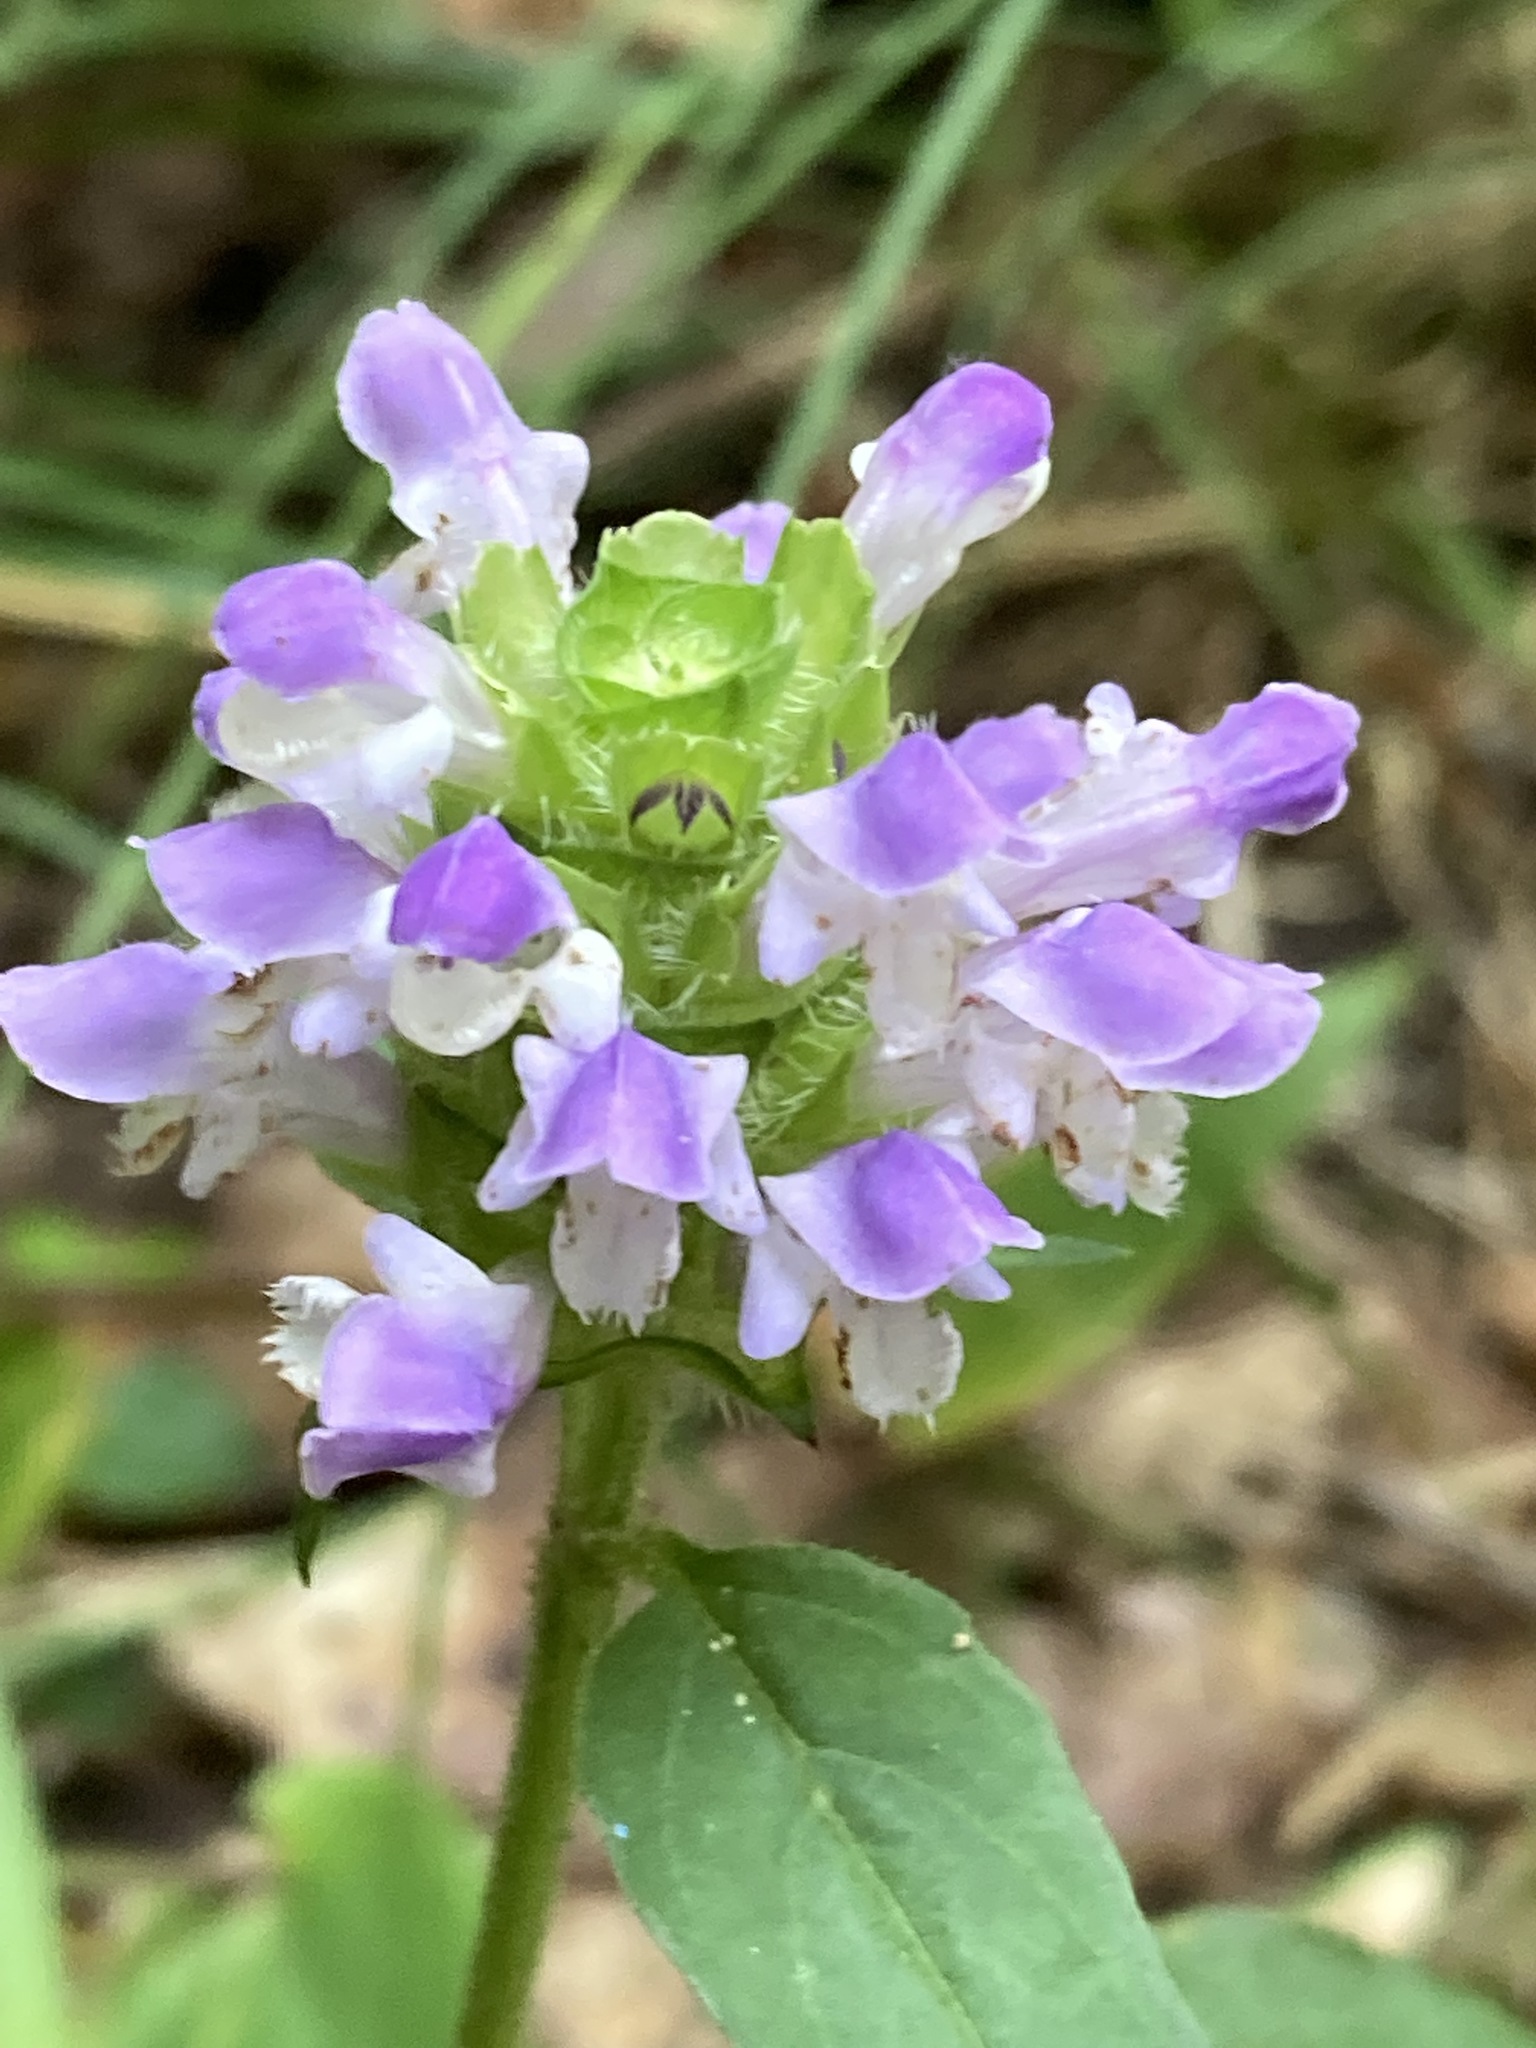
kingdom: Plantae
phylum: Tracheophyta
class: Magnoliopsida
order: Lamiales
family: Lamiaceae
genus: Prunella
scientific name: Prunella vulgaris
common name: Heal-all
